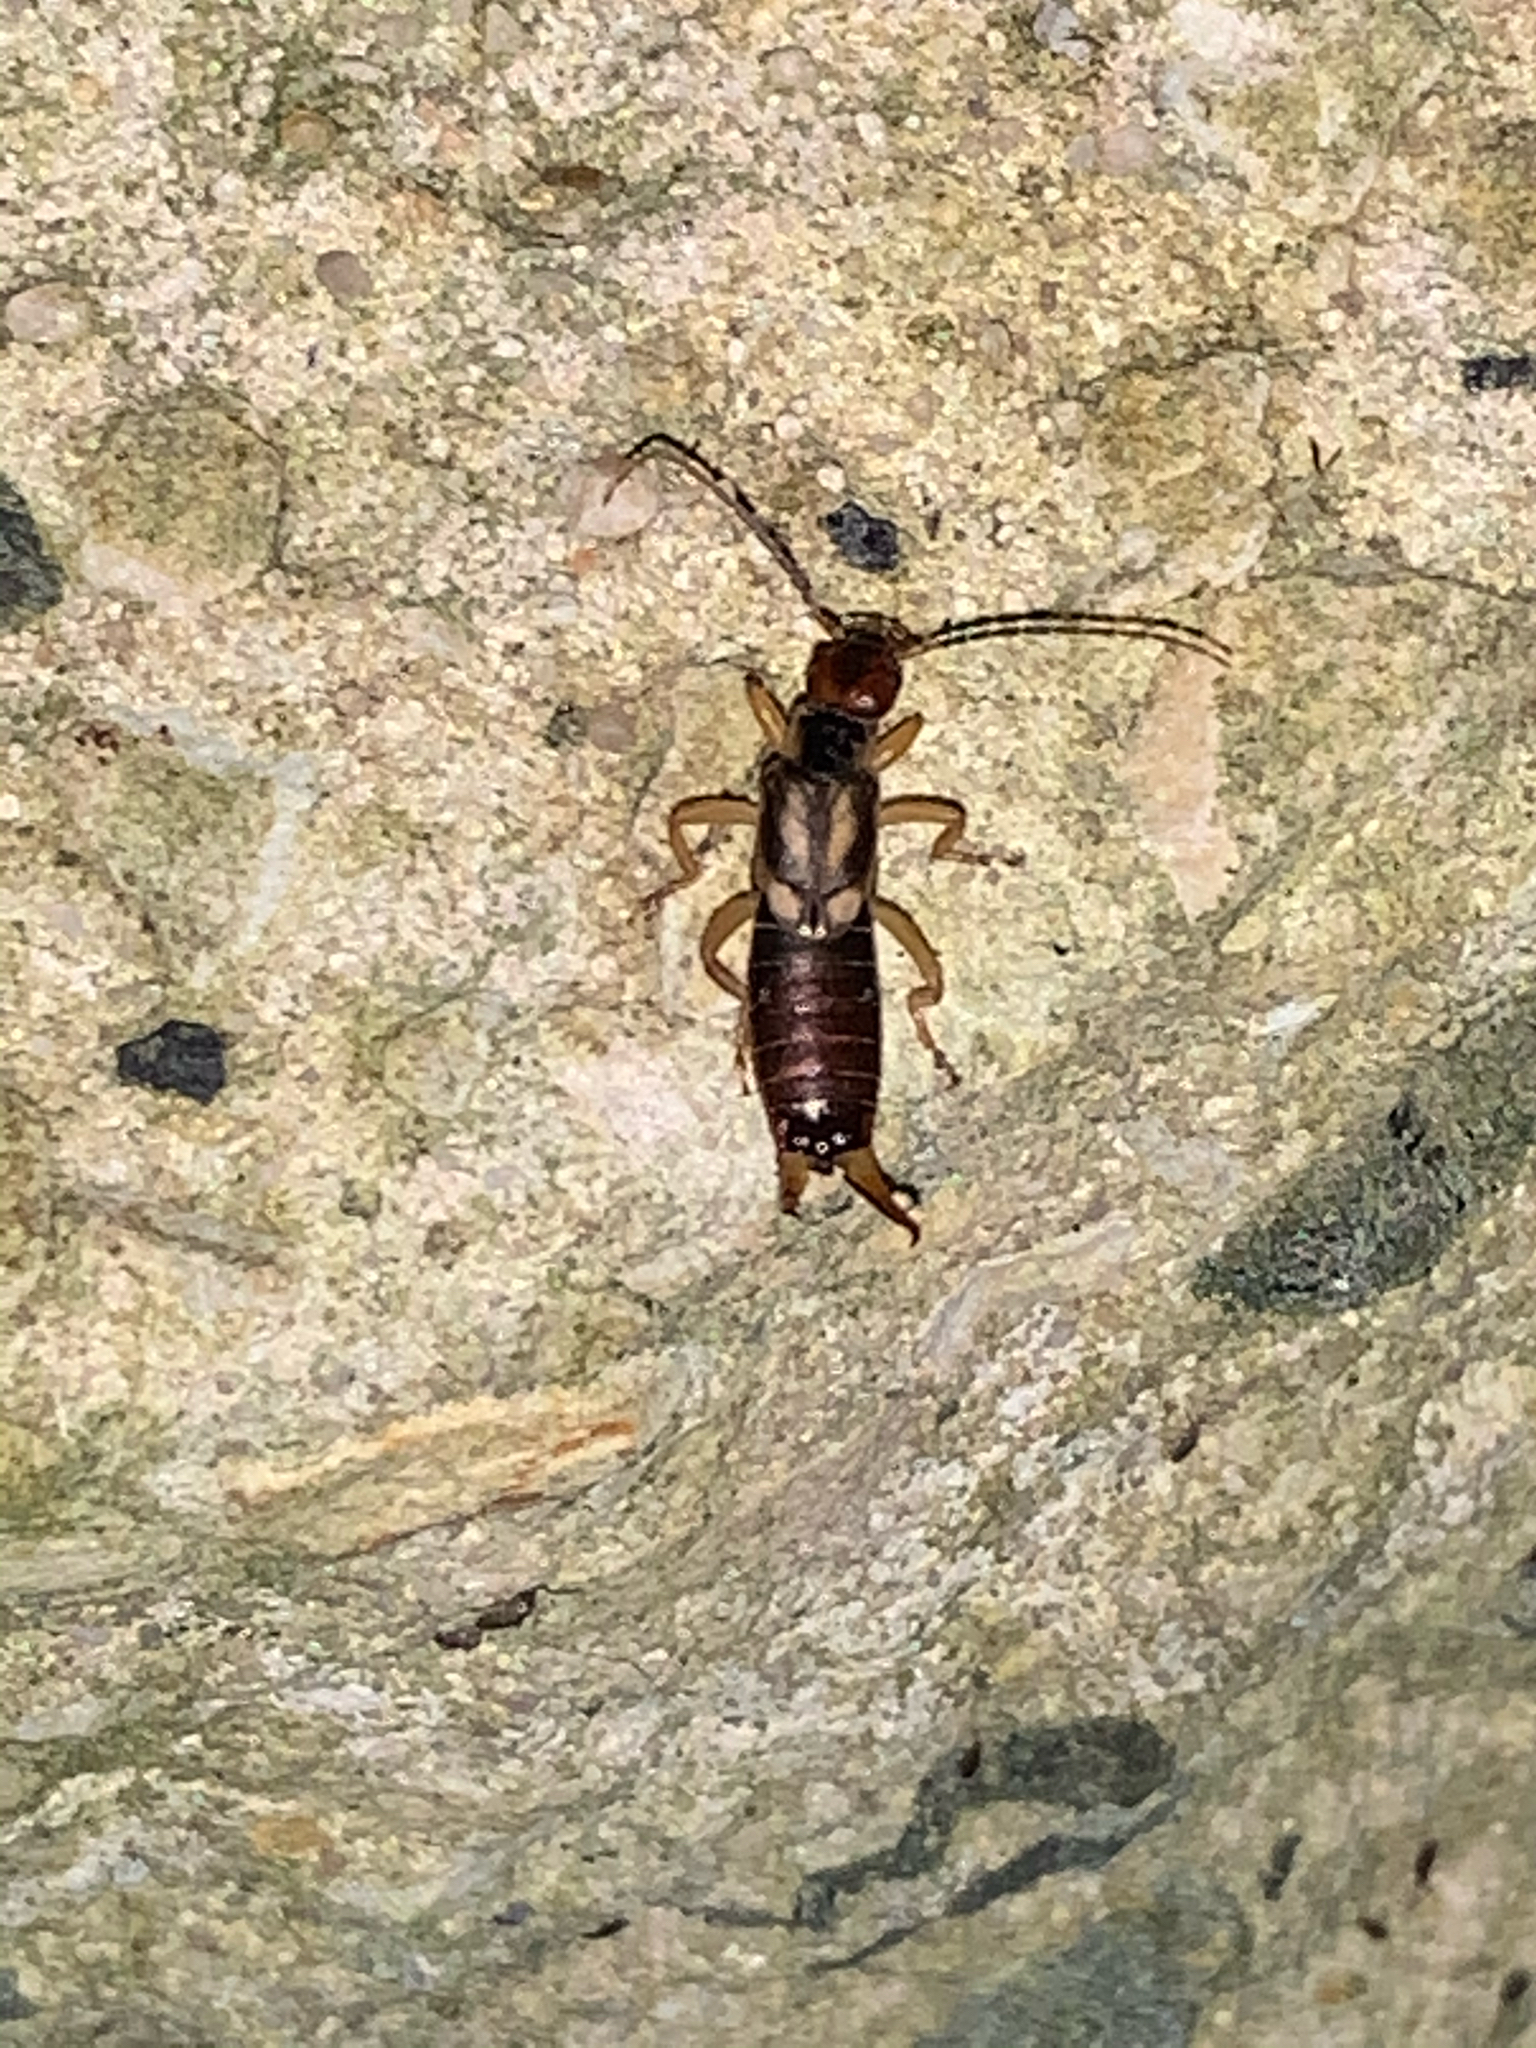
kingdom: Animalia
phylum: Arthropoda
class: Insecta
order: Dermaptera
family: Forficulidae
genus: Forficula
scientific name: Forficula
